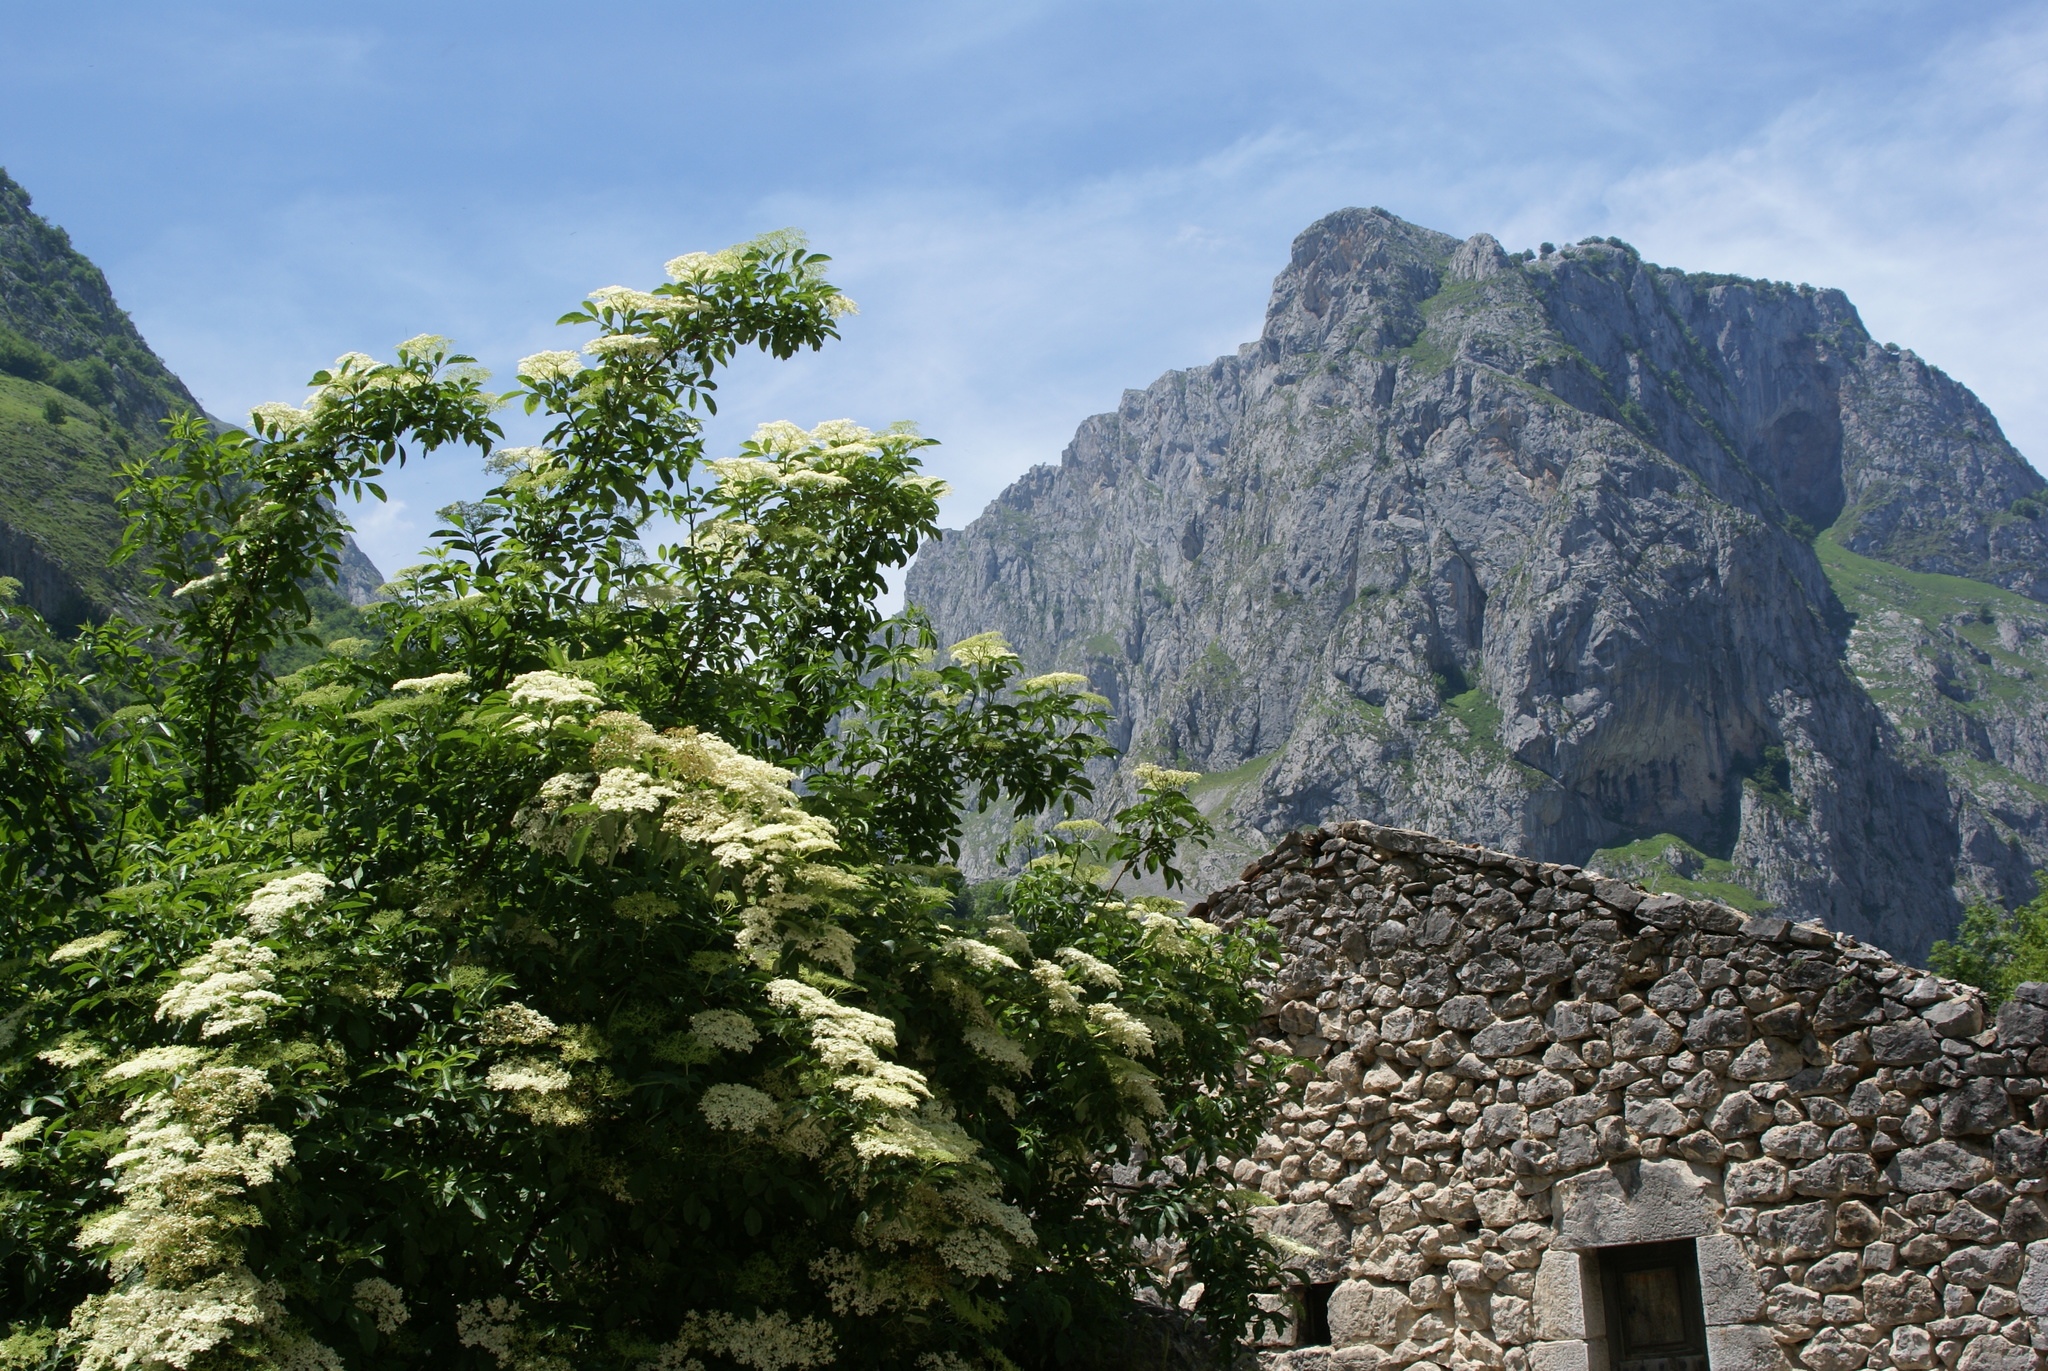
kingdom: Plantae
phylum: Tracheophyta
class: Magnoliopsida
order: Dipsacales
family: Viburnaceae
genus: Sambucus
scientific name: Sambucus nigra
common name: Elder
